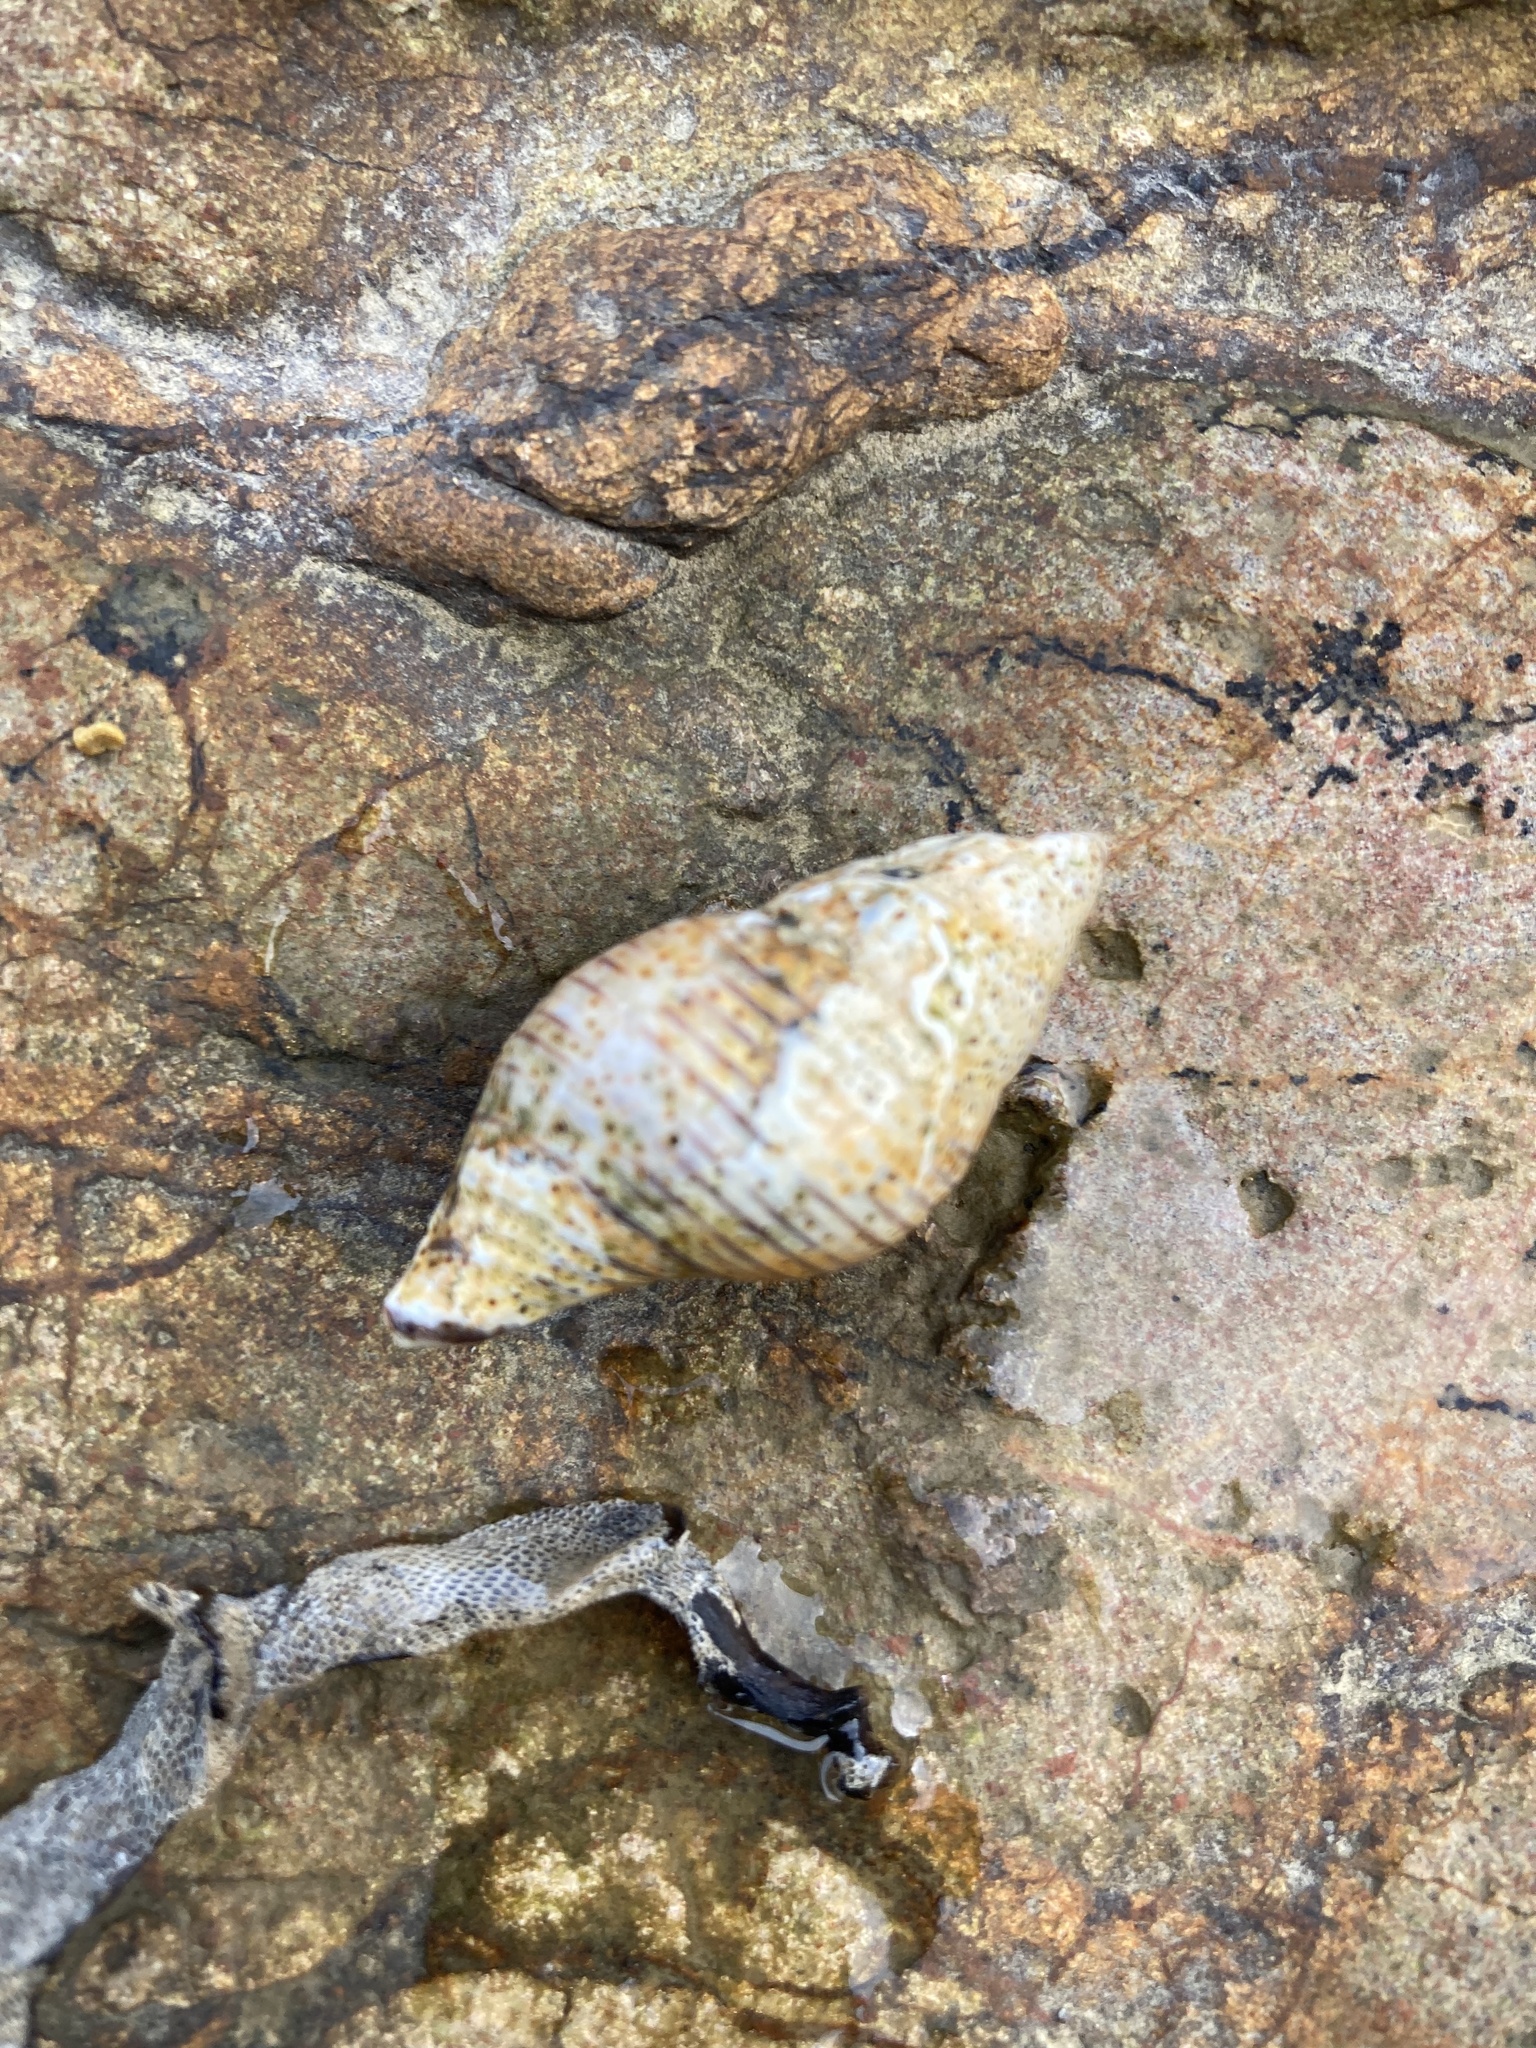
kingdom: Animalia
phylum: Mollusca
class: Gastropoda
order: Neogastropoda
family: Tudiclidae
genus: Buccinulum
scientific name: Buccinulum linea
